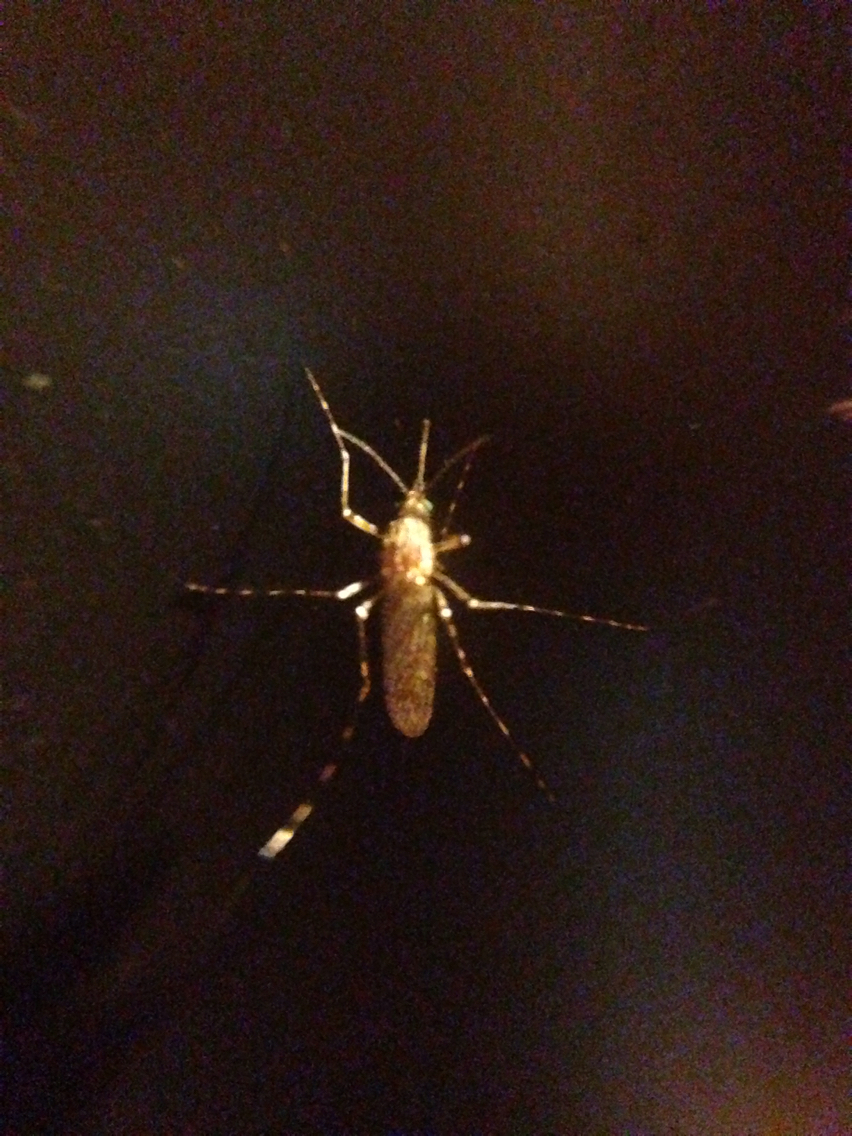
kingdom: Animalia
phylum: Arthropoda
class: Insecta
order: Diptera
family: Culicidae
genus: Coquillettidia
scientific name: Coquillettidia perturbans
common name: Cattail mosquito
